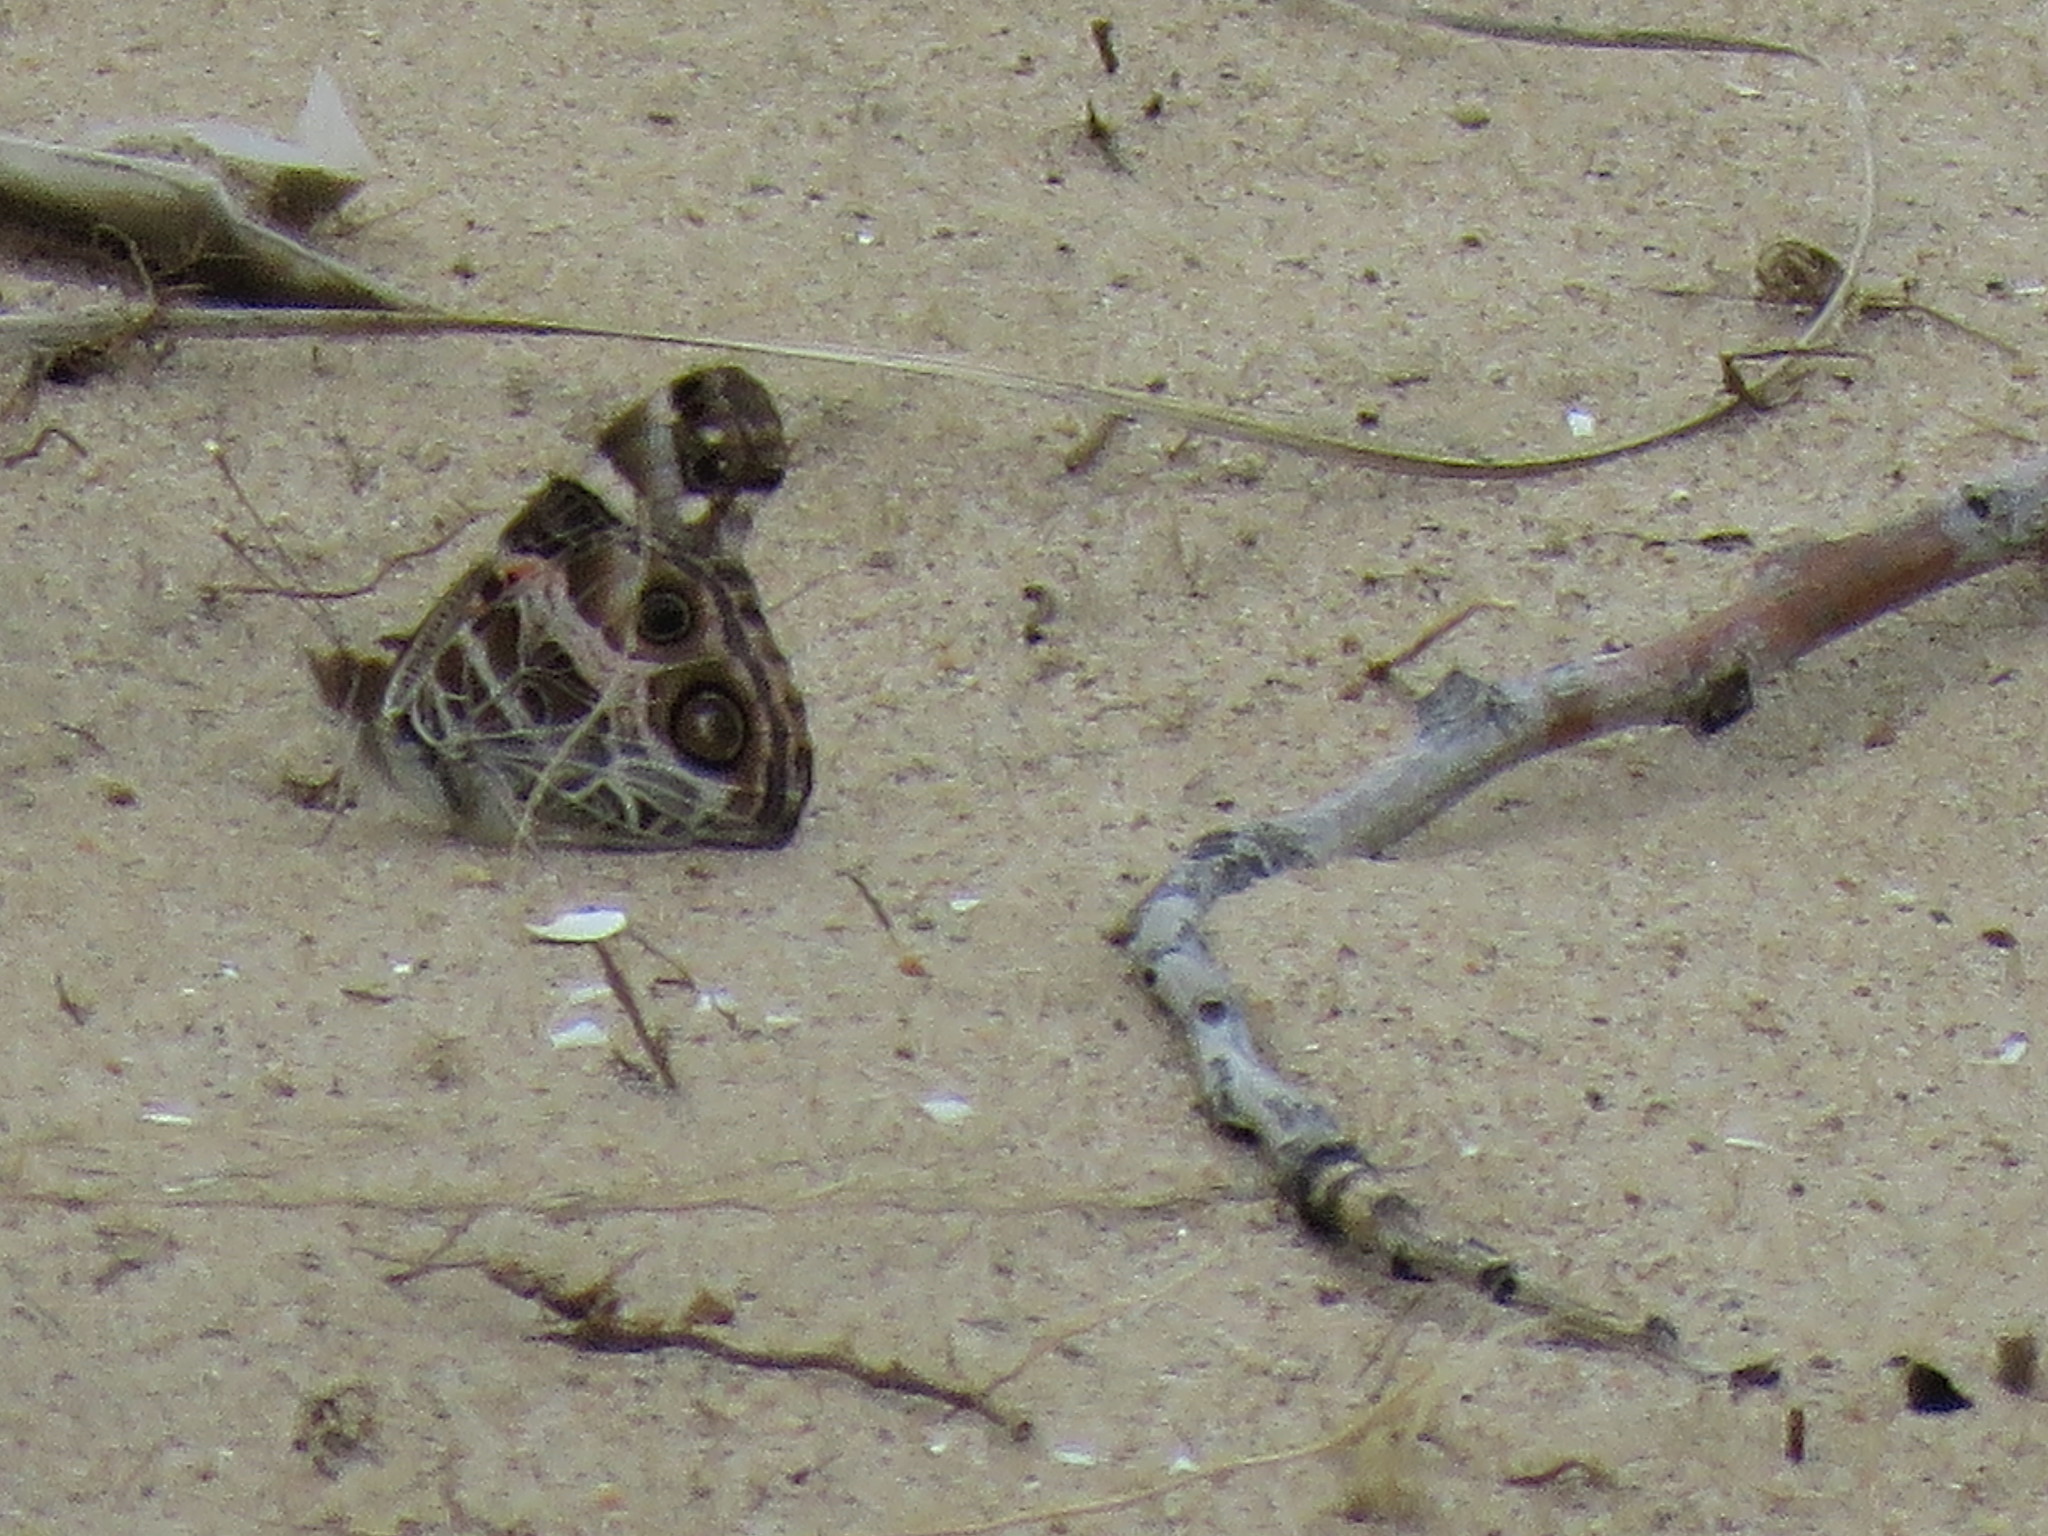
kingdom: Animalia
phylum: Arthropoda
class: Insecta
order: Lepidoptera
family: Nymphalidae
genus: Vanessa
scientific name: Vanessa virginiensis
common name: American lady
